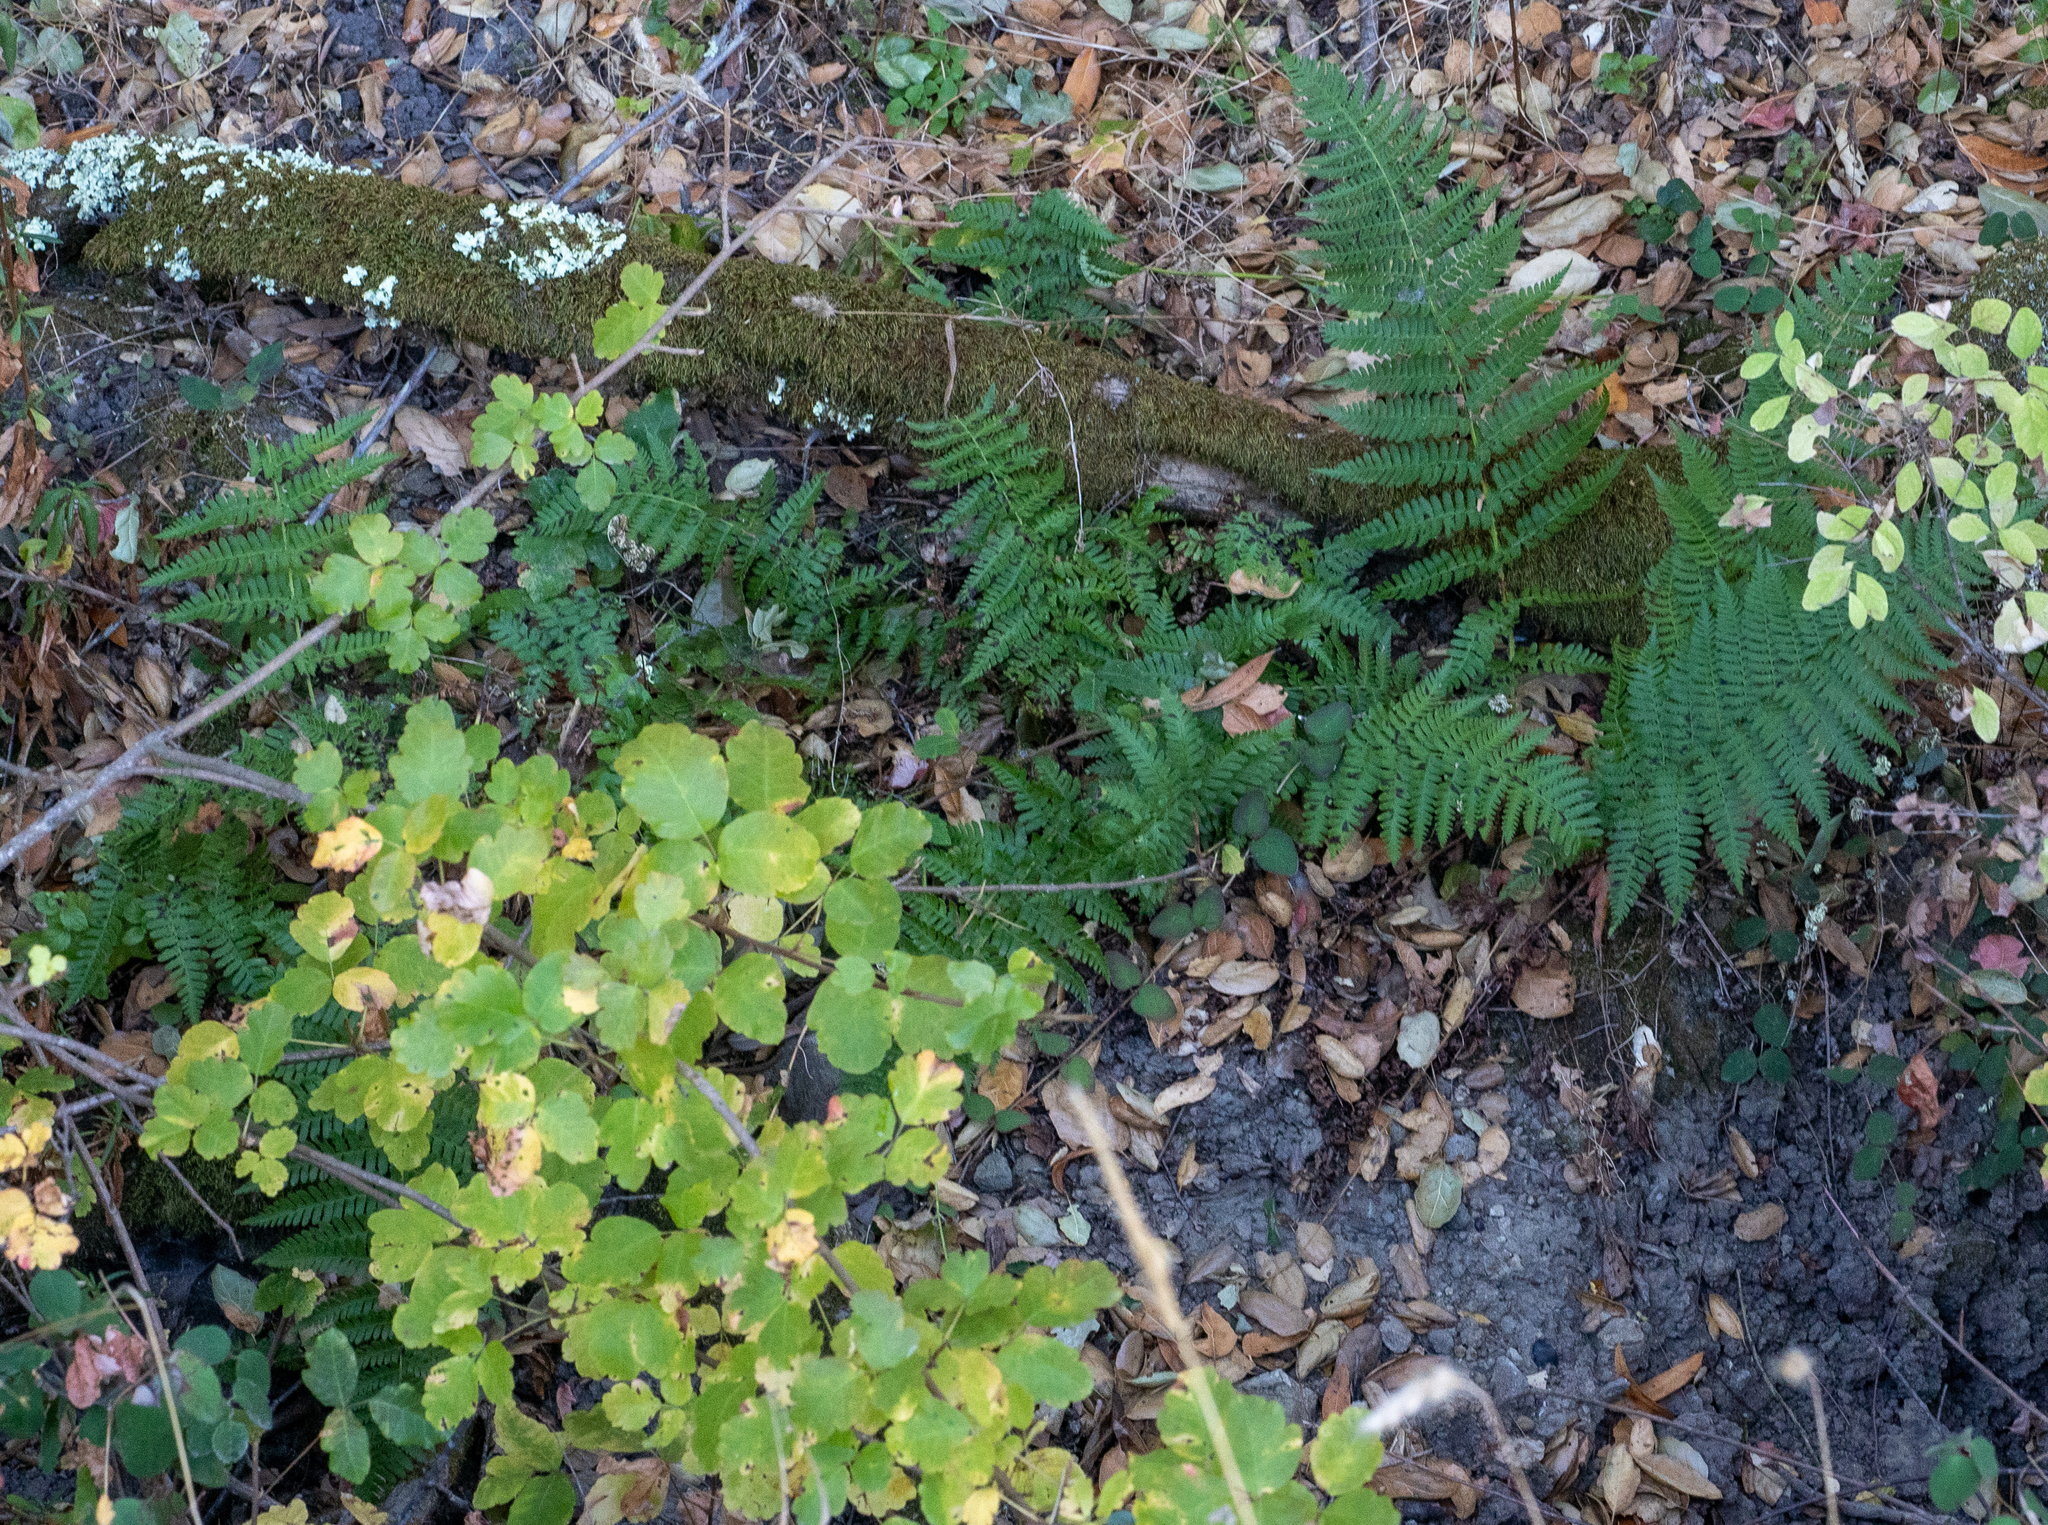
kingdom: Plantae
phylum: Tracheophyta
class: Polypodiopsida
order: Polypodiales
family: Dryopteridaceae
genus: Dryopteris
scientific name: Dryopteris arguta
